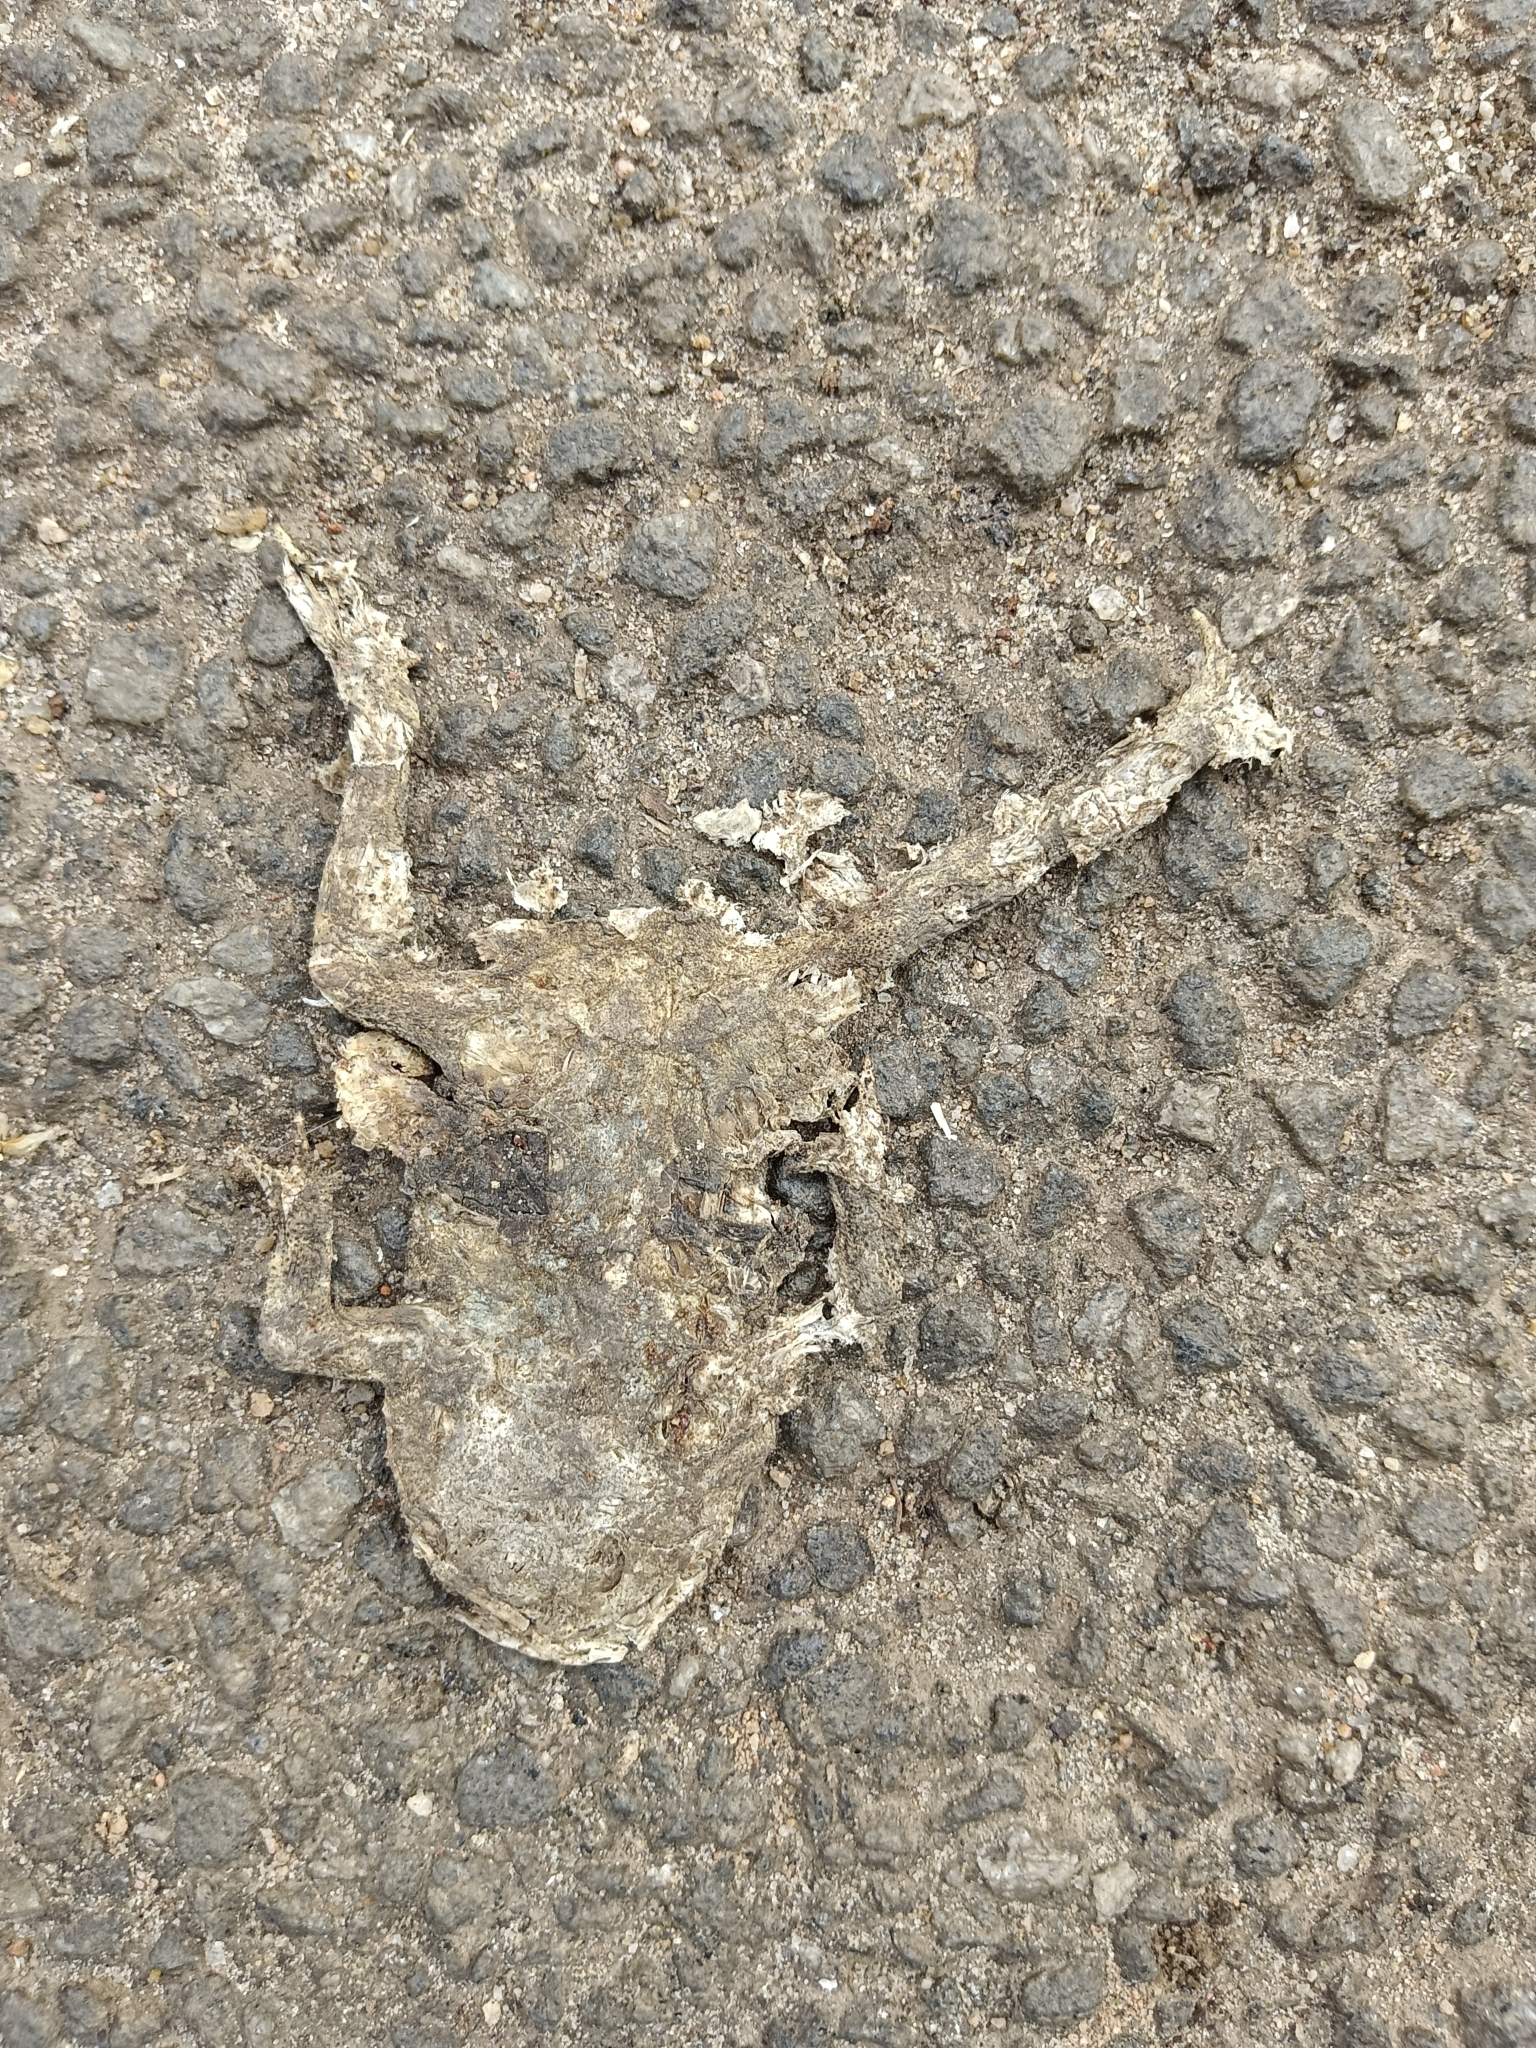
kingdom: Animalia
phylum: Chordata
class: Amphibia
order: Anura
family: Bufonidae
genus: Duttaphrynus
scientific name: Duttaphrynus melanostictus
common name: Common sunda toad
